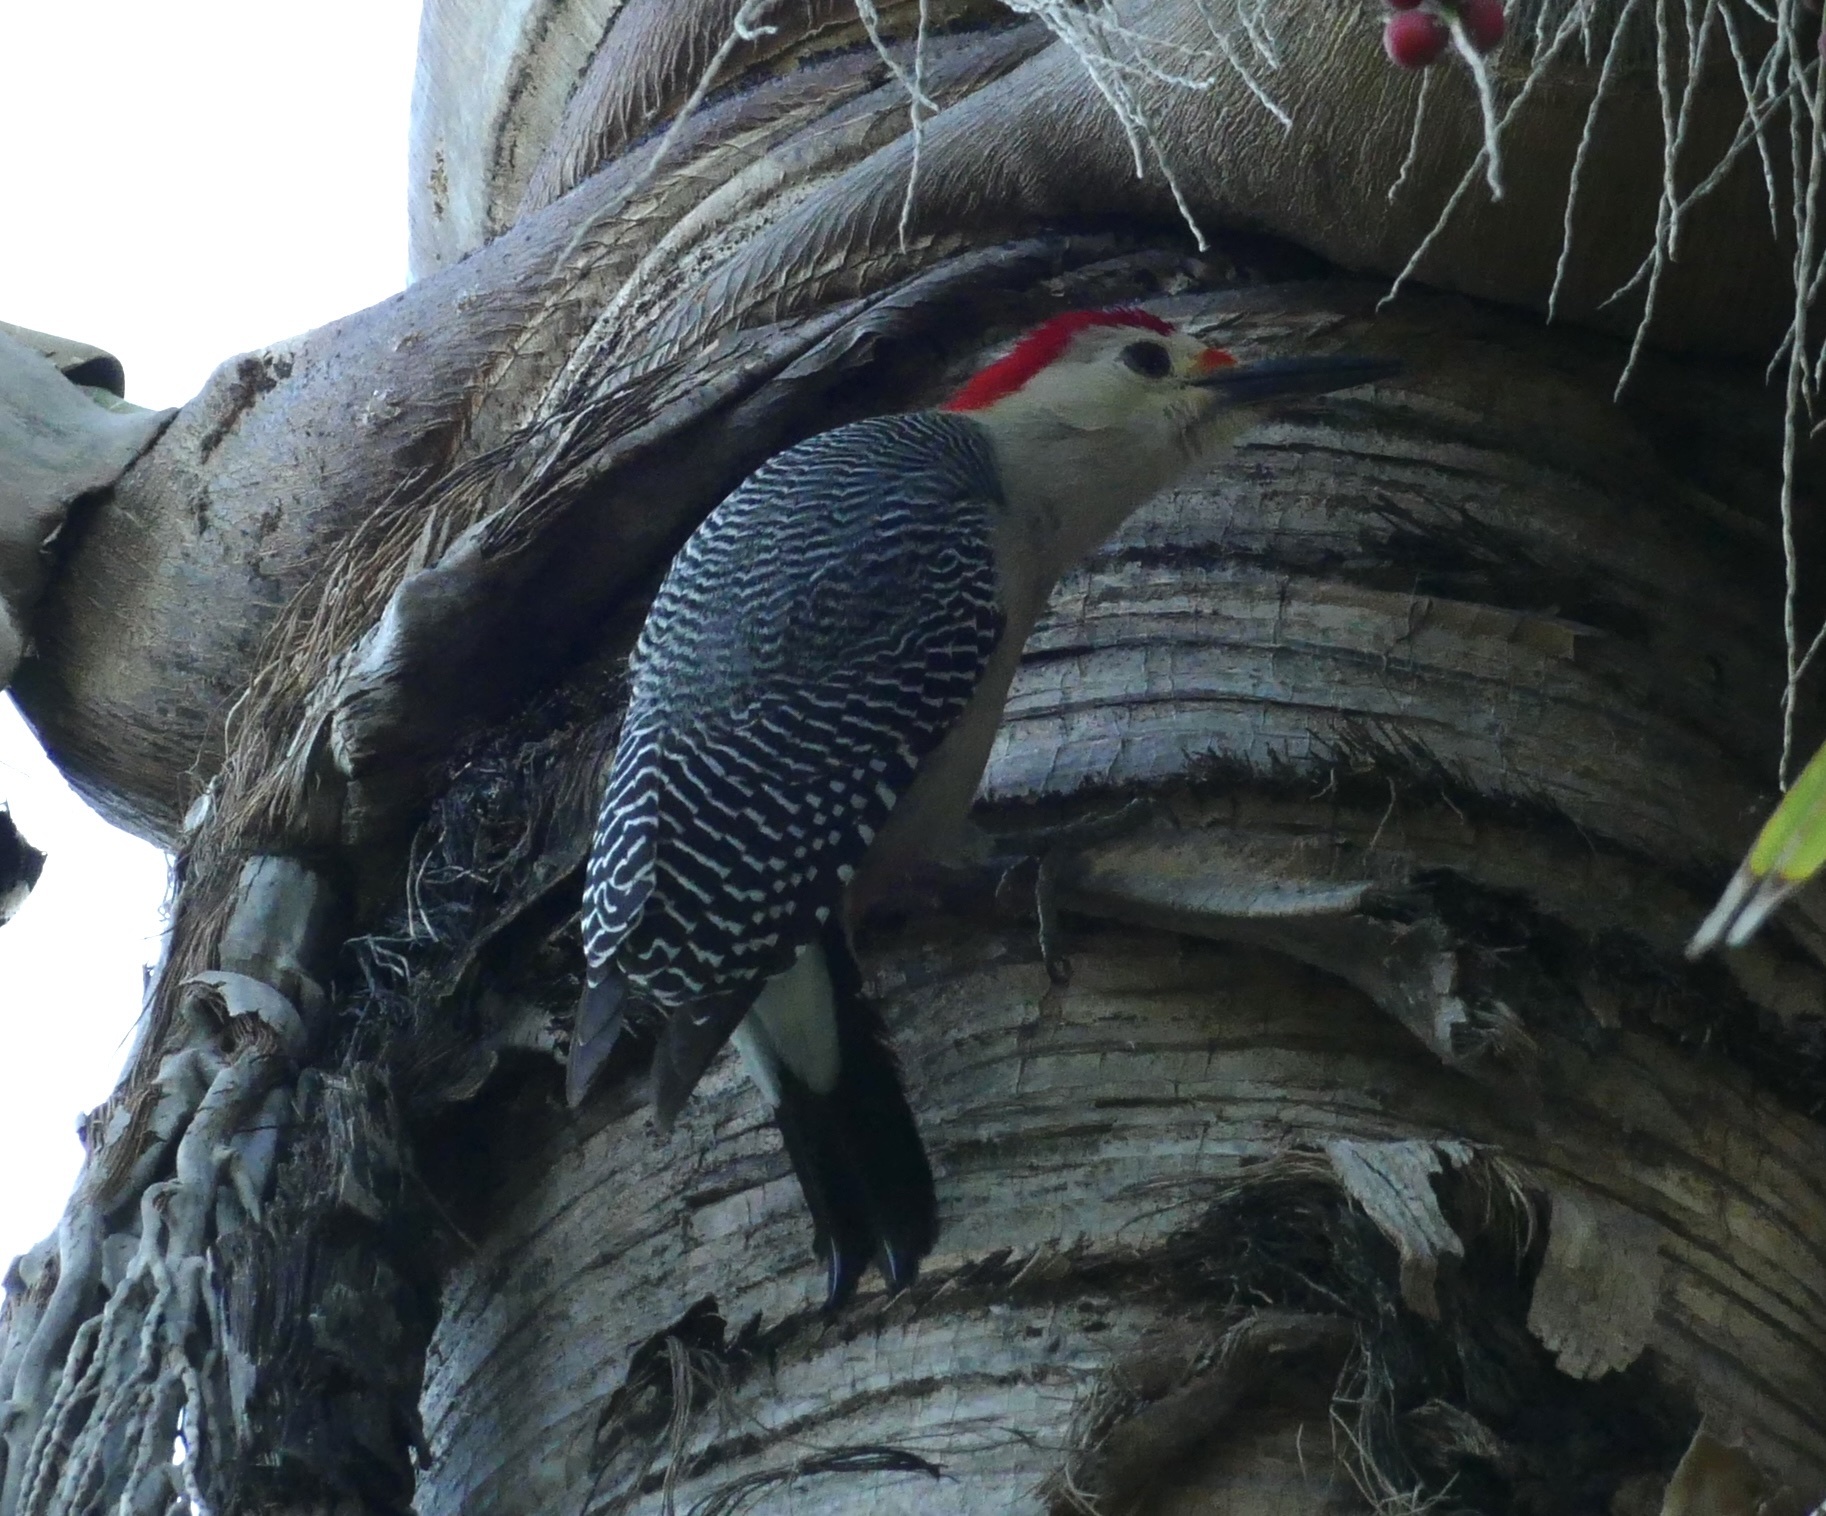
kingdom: Animalia
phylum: Chordata
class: Aves
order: Piciformes
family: Picidae
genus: Melanerpes
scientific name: Melanerpes aurifrons
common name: Golden-fronted woodpecker
